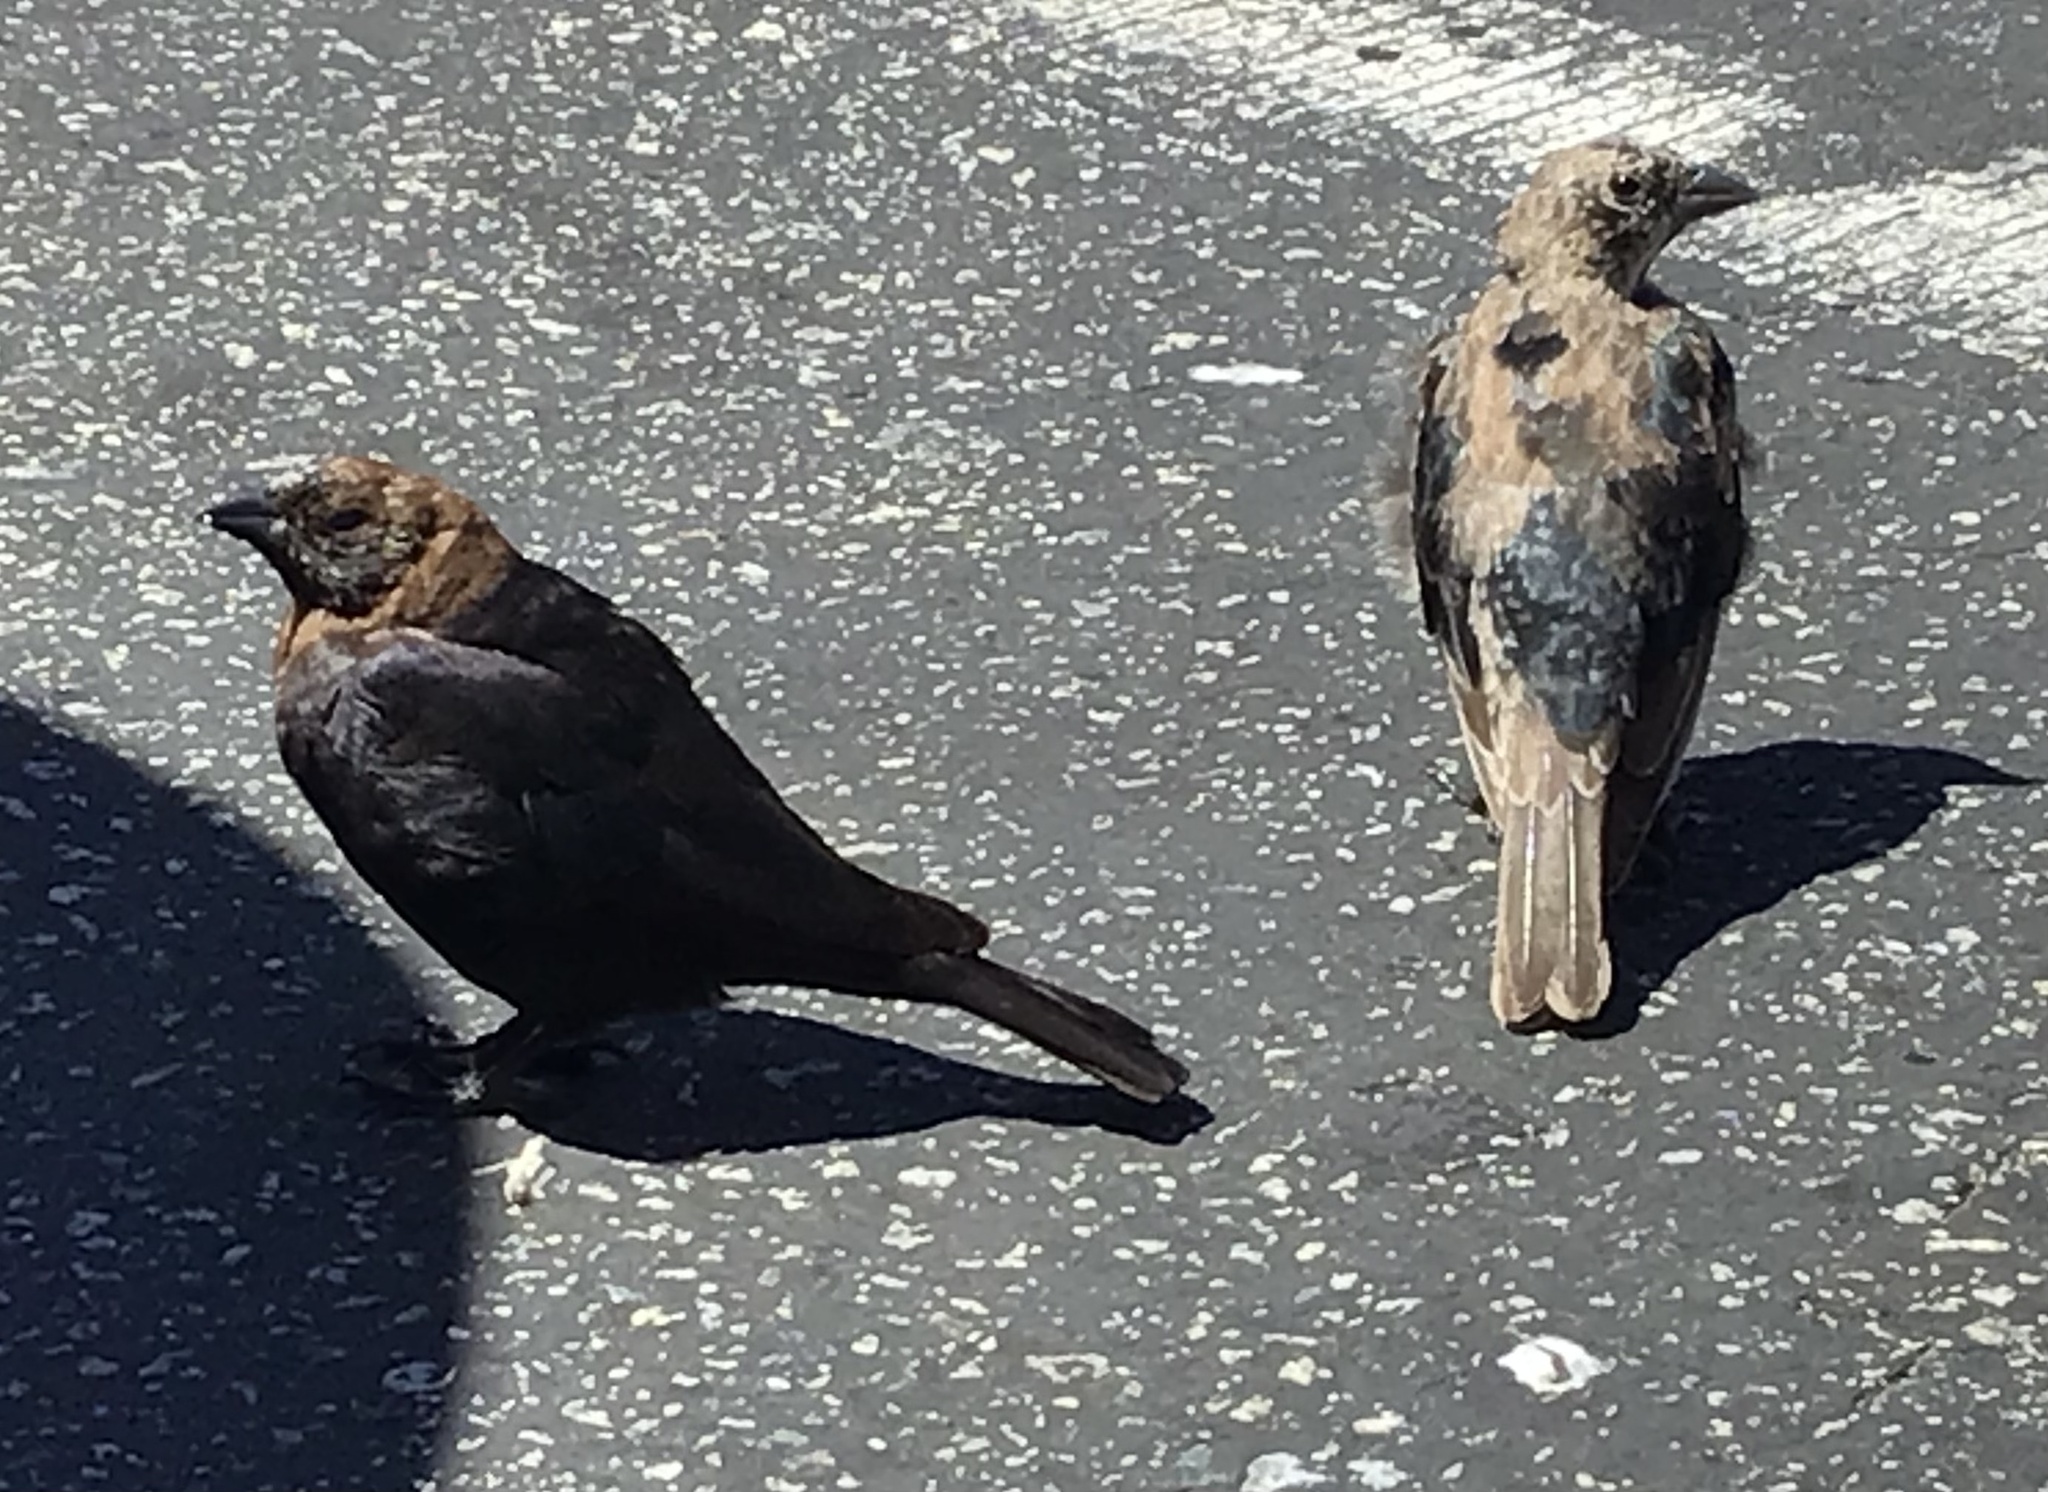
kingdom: Animalia
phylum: Chordata
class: Aves
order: Passeriformes
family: Icteridae
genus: Molothrus
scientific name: Molothrus ater
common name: Brown-headed cowbird
